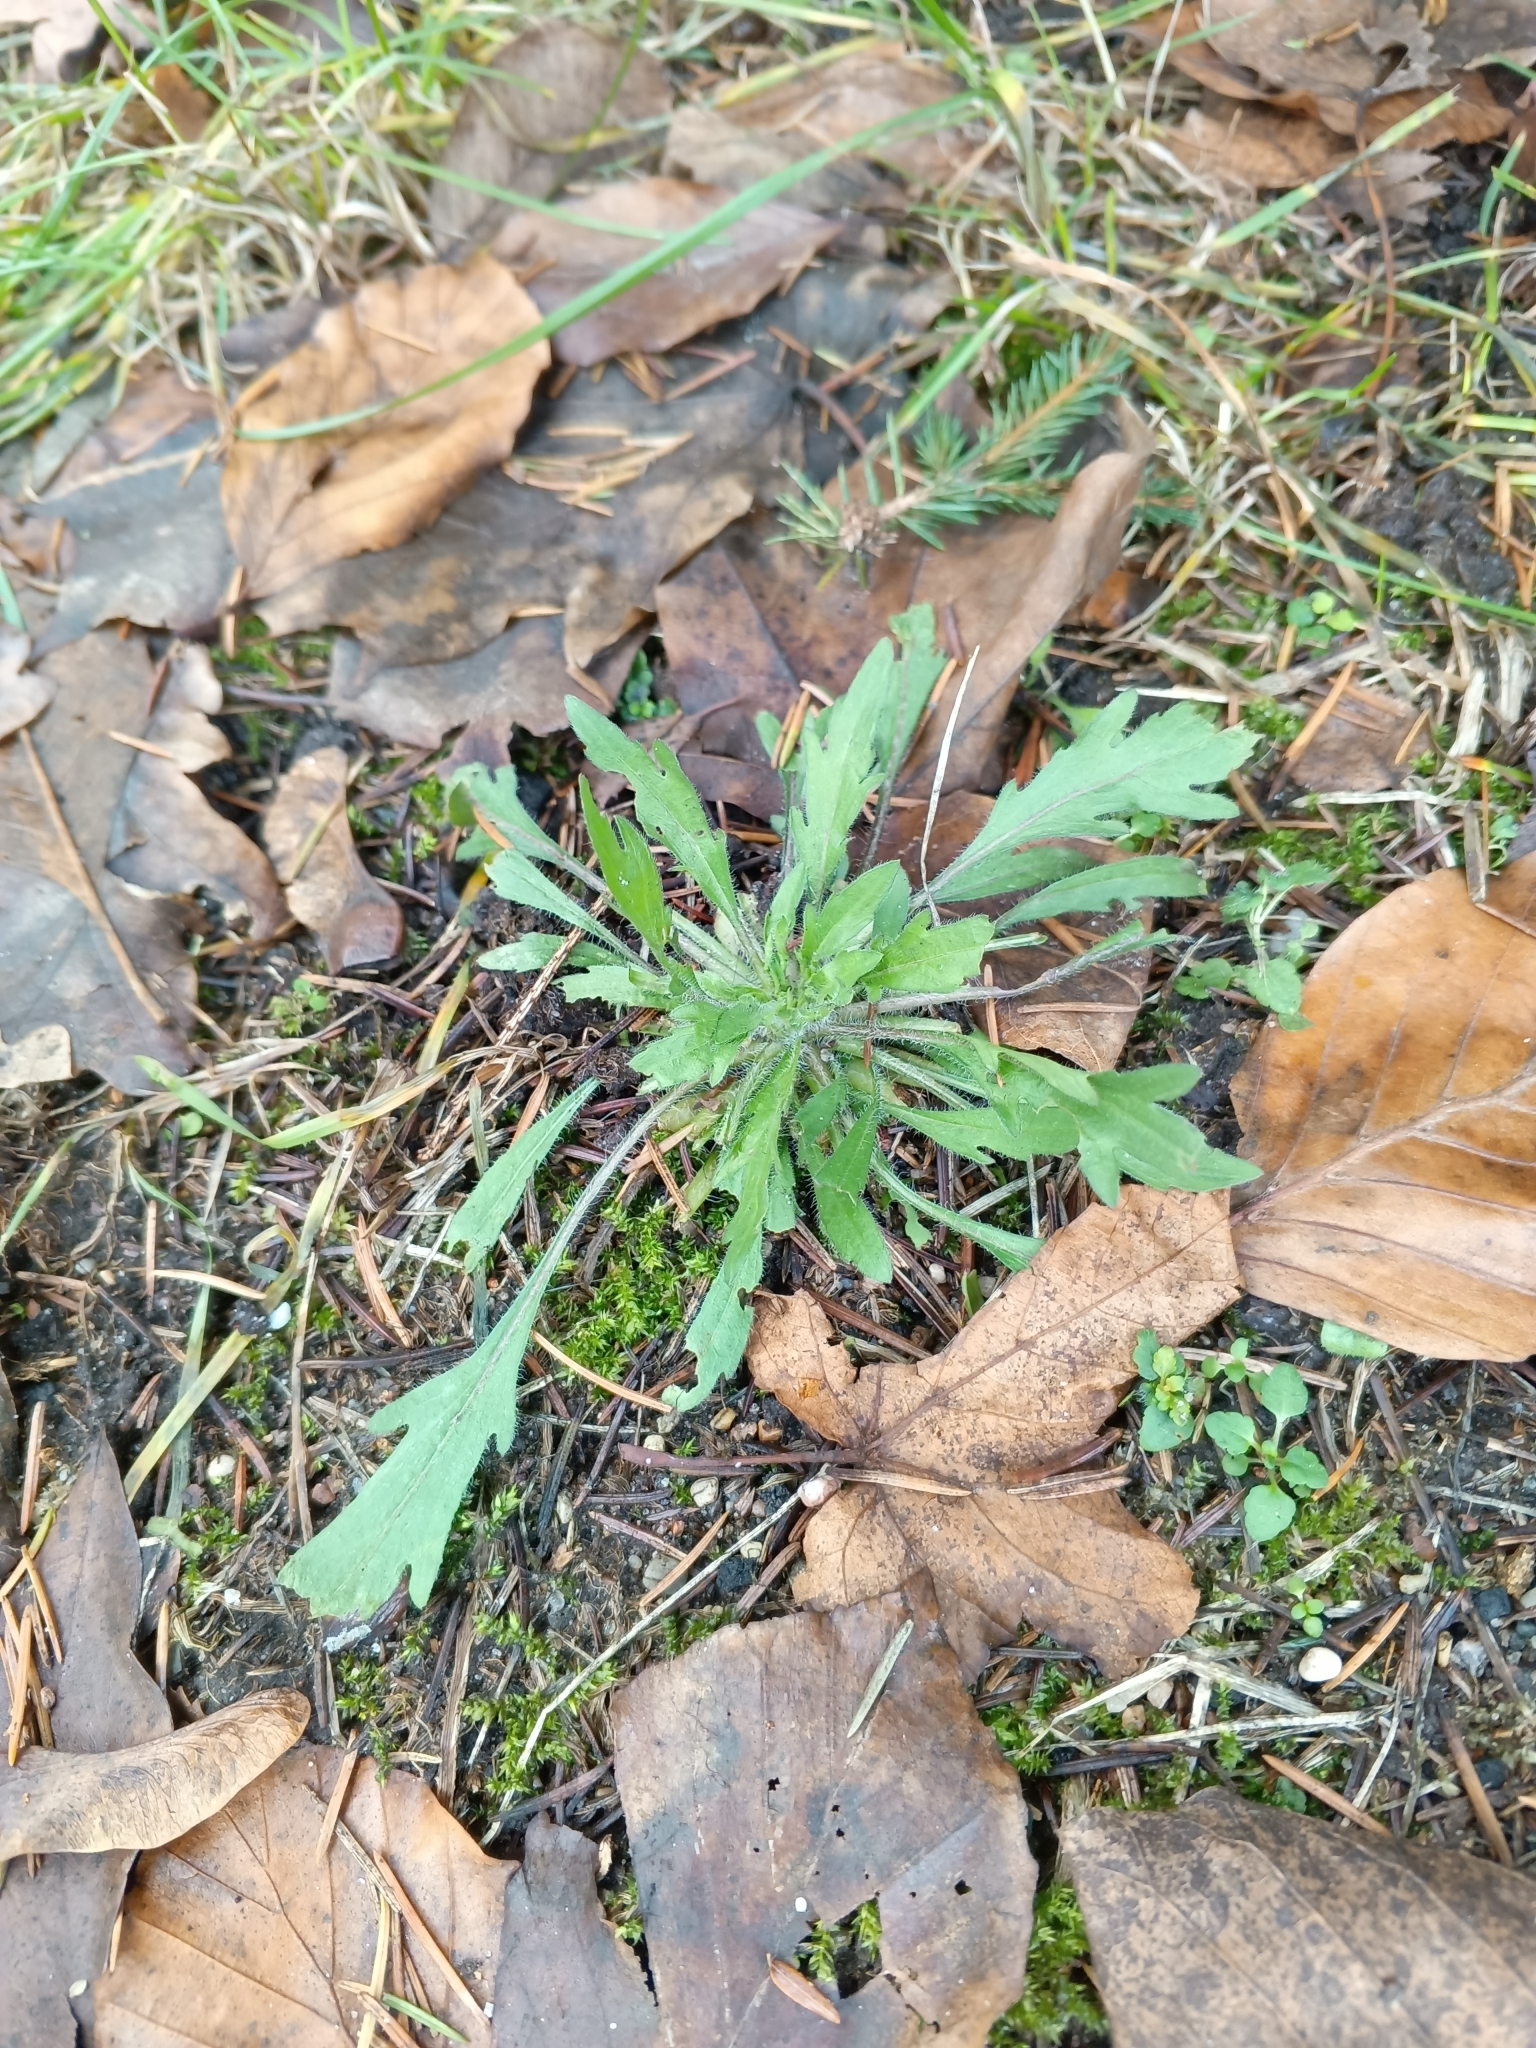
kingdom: Plantae
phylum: Tracheophyta
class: Magnoliopsida
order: Asterales
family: Asteraceae
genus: Erigeron
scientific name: Erigeron canadensis
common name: Canadian fleabane
